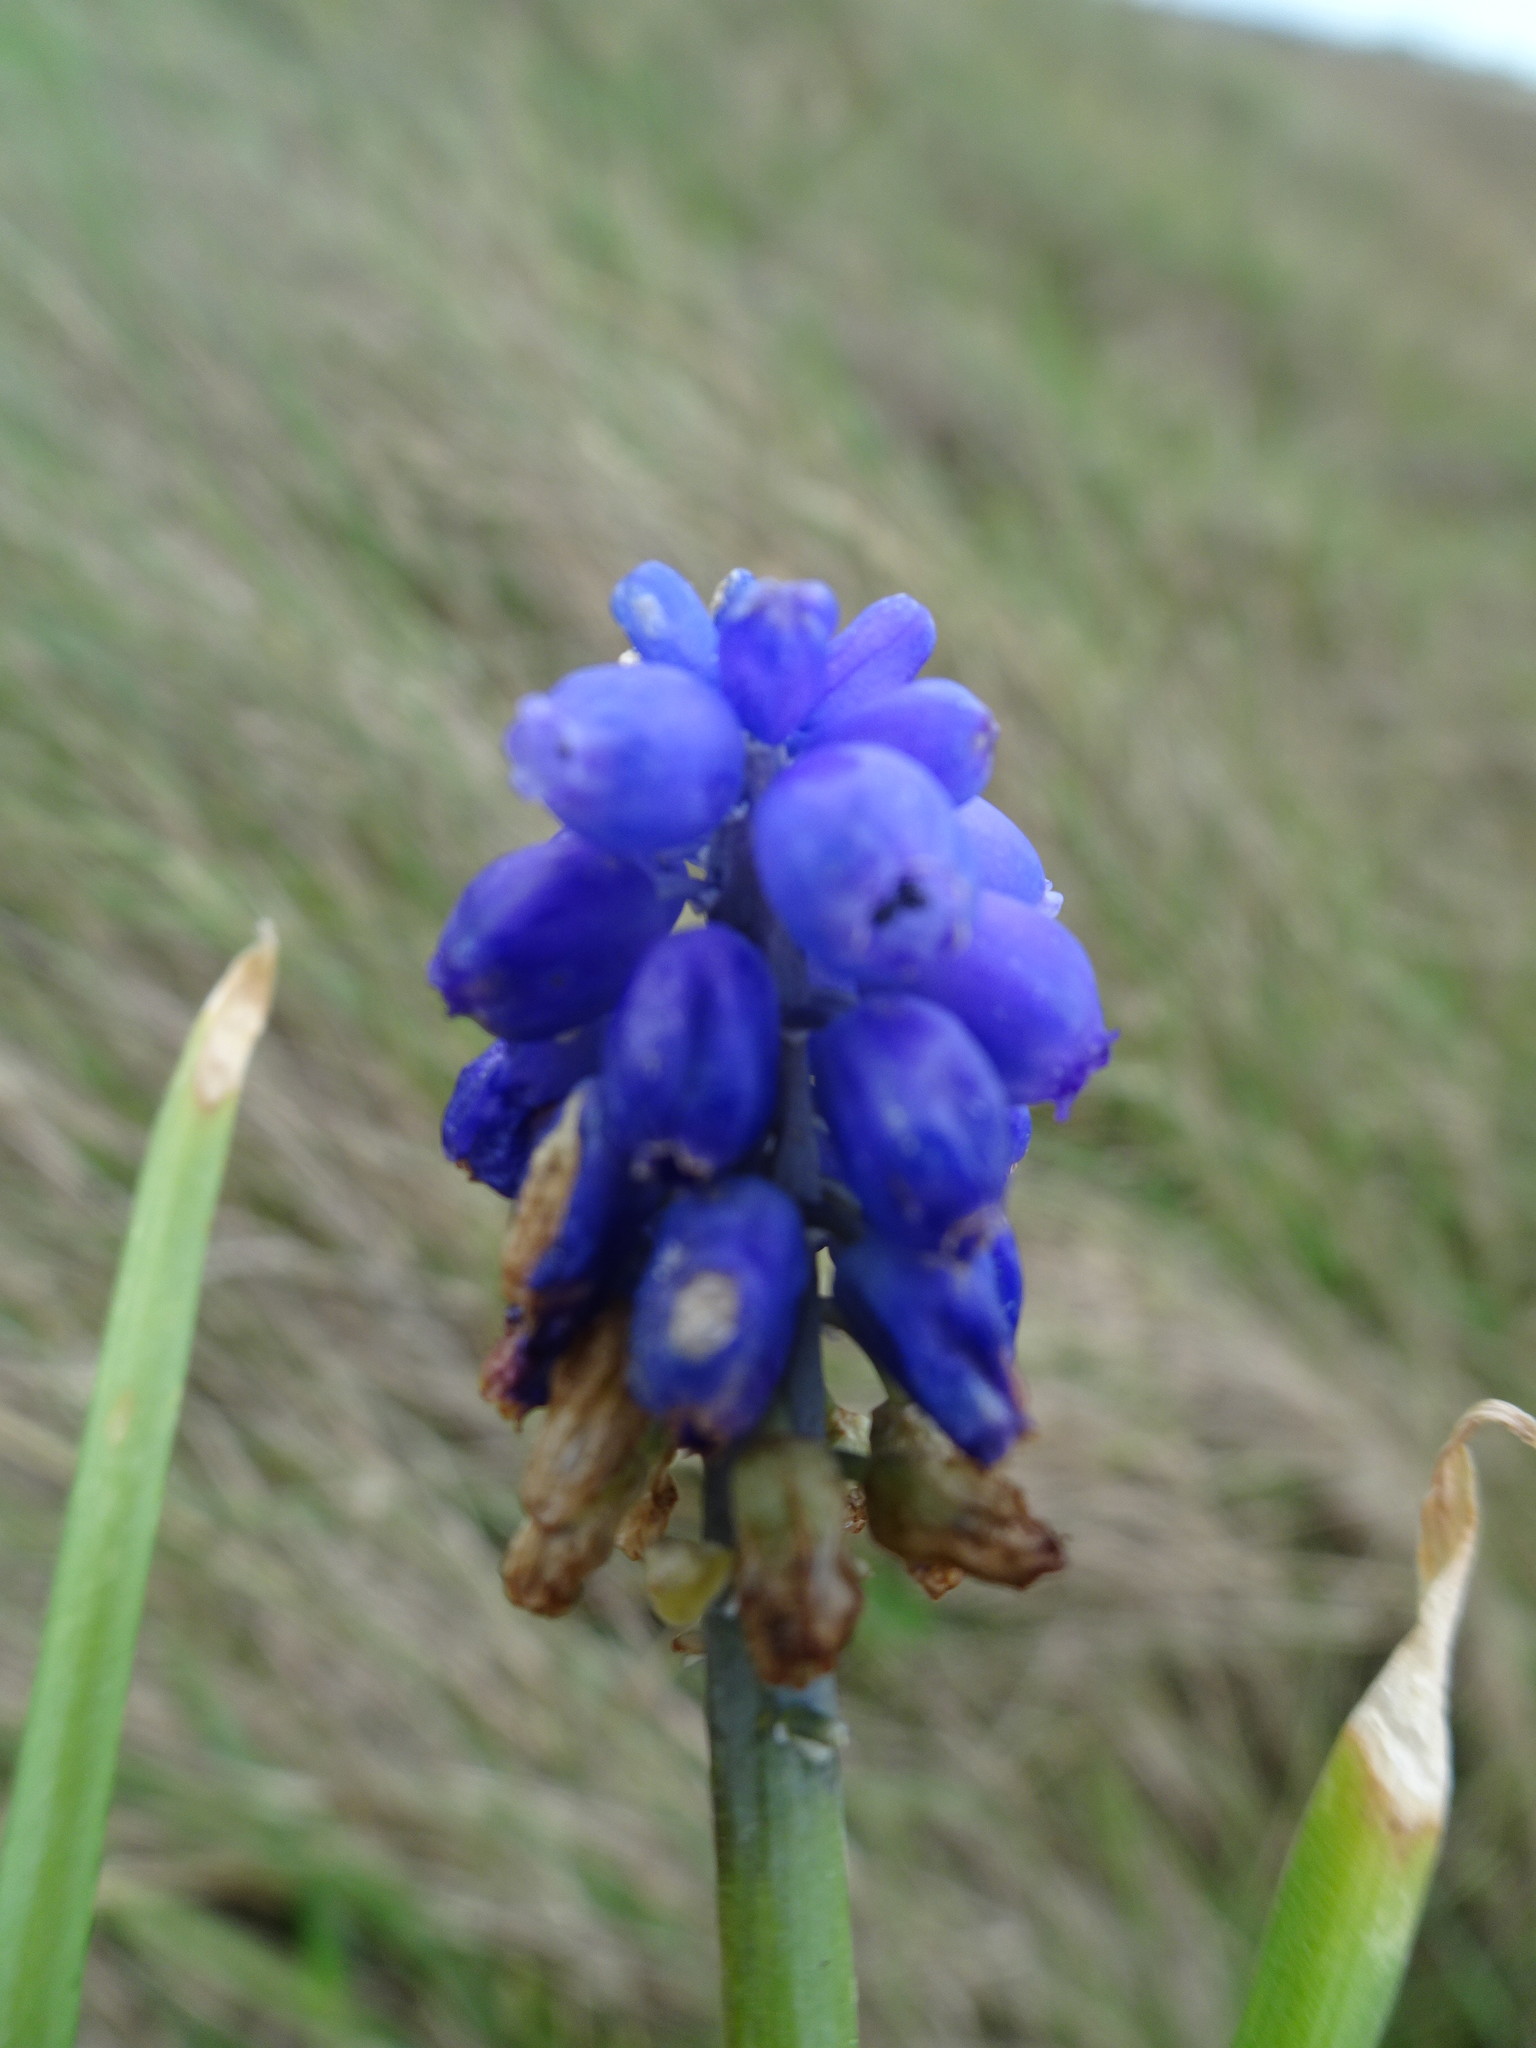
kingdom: Plantae
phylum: Tracheophyta
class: Liliopsida
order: Asparagales
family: Asparagaceae
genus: Muscari
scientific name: Muscari armeniacum
